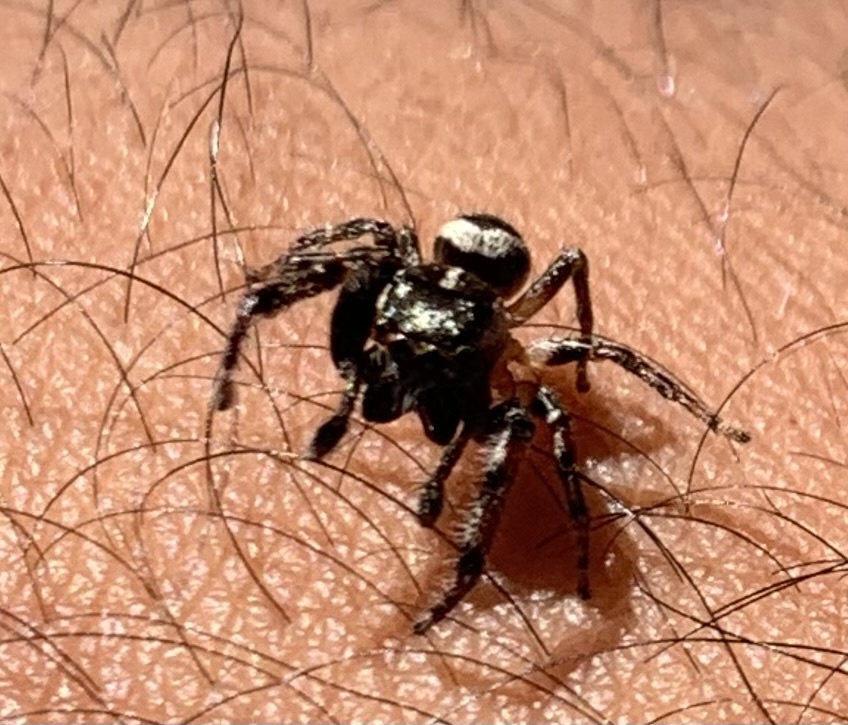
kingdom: Animalia
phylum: Arthropoda
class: Arachnida
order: Araneae
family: Salticidae
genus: Eris
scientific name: Eris militaris
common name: Bronze jumper
